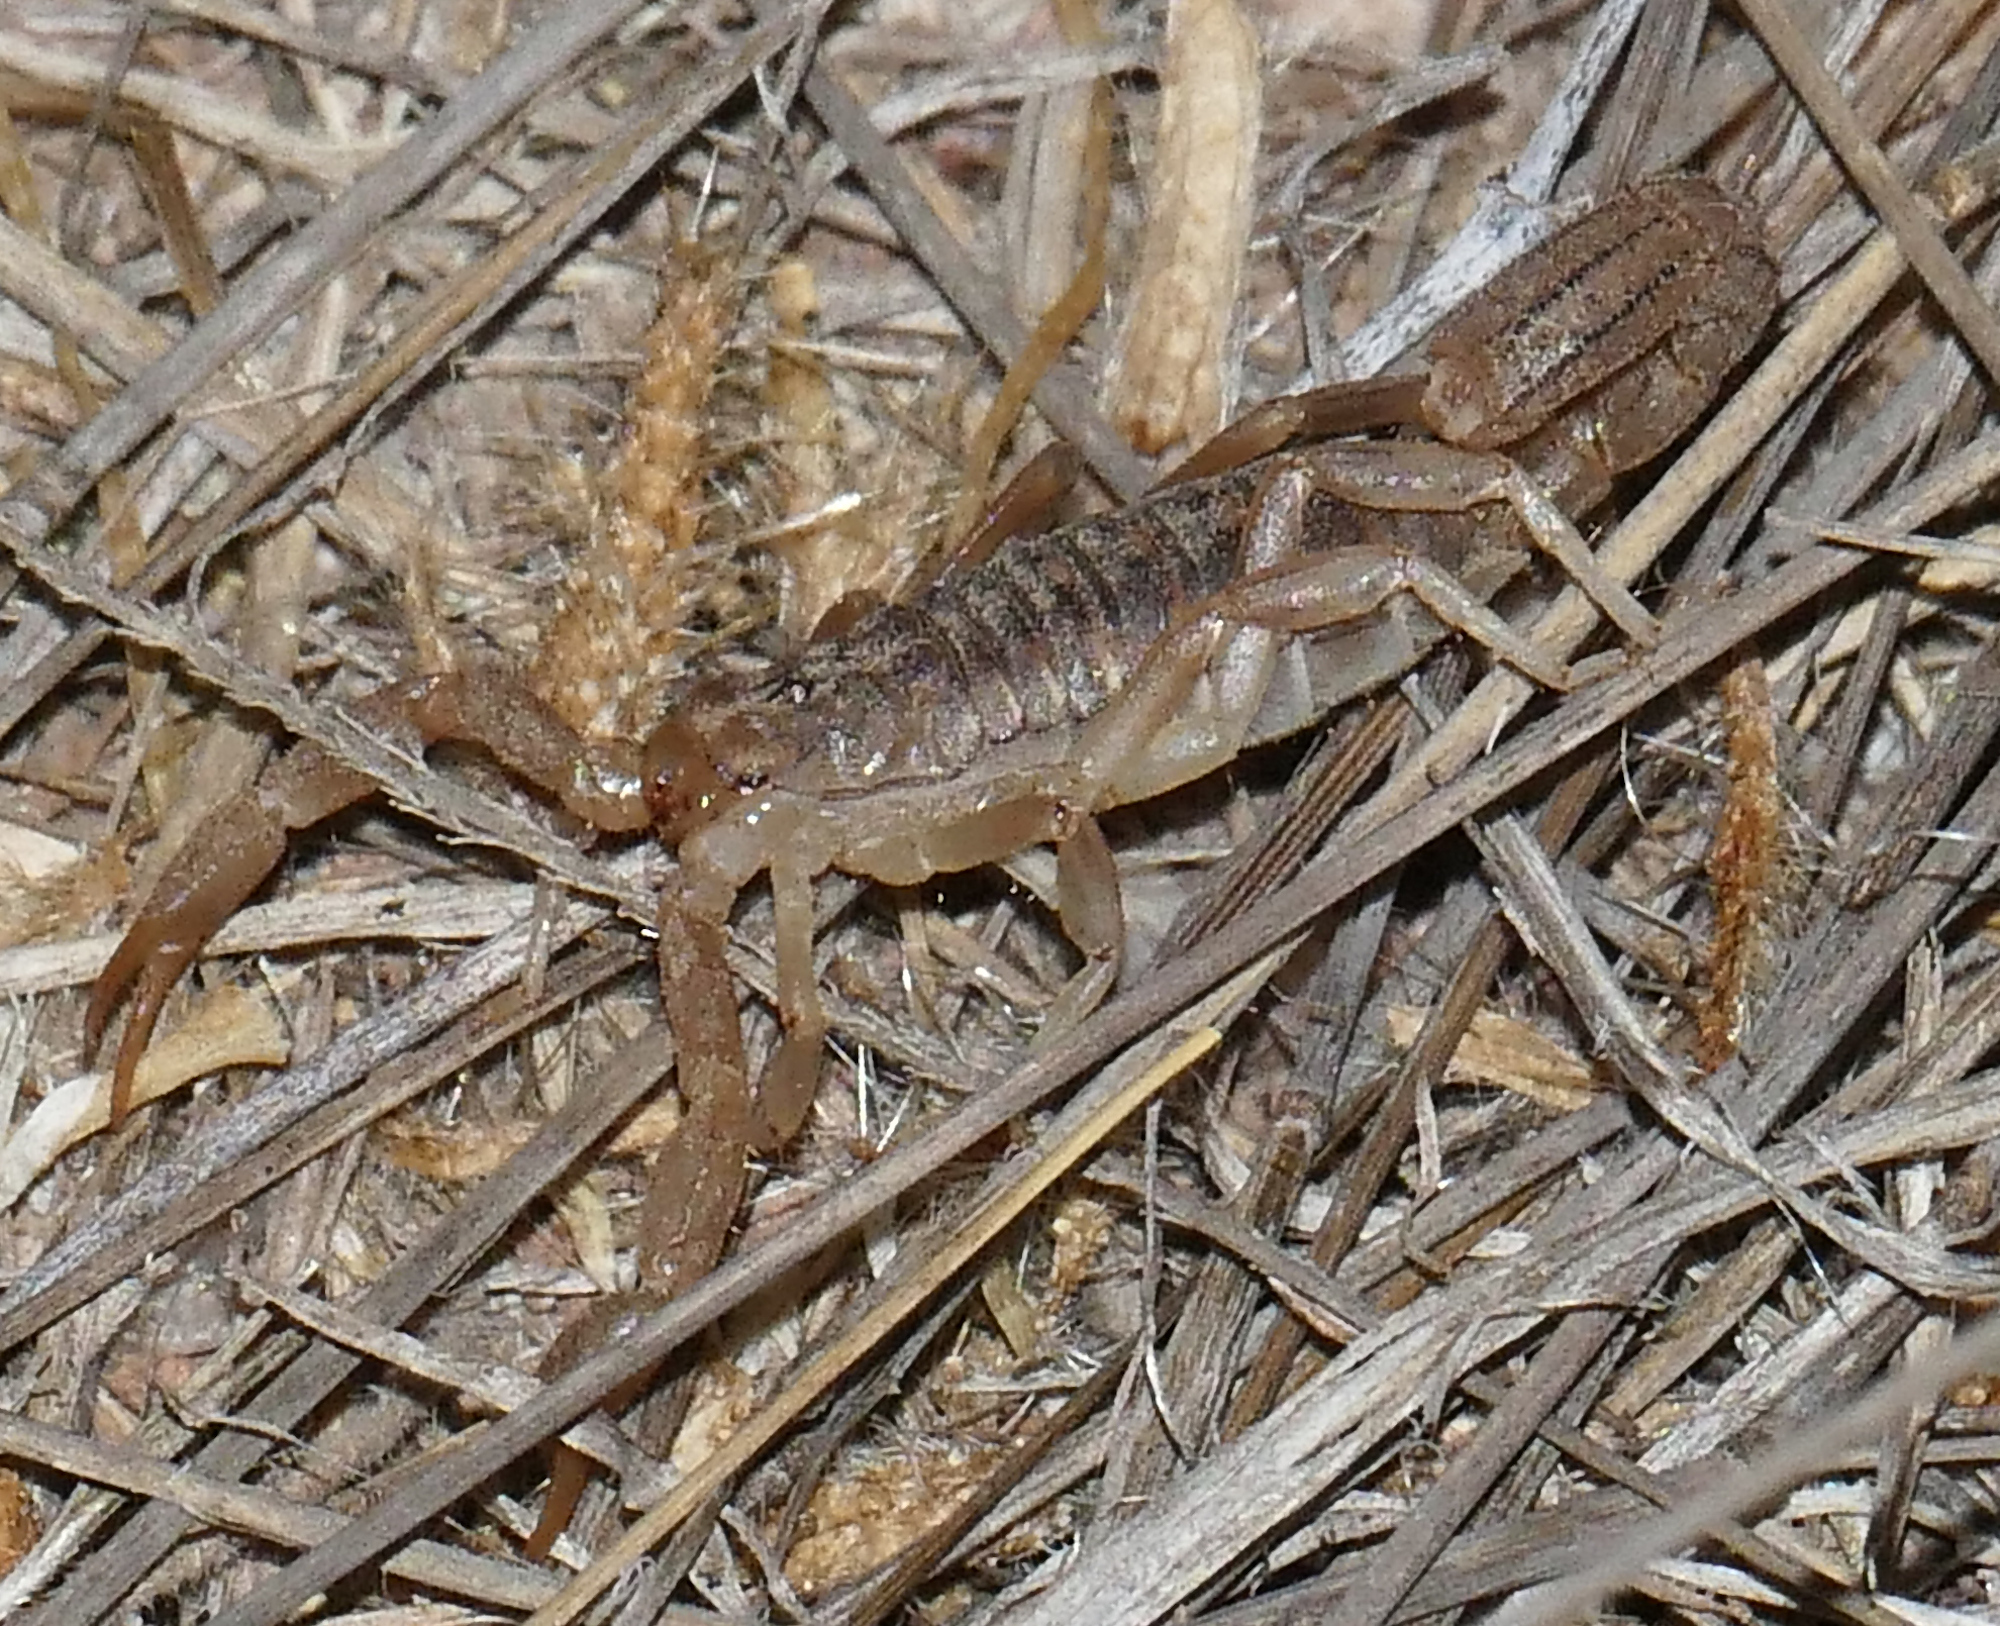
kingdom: Animalia
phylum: Arthropoda
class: Arachnida
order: Scorpiones
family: Vaejovidae
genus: Paravaejovis
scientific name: Paravaejovis spinigerus
